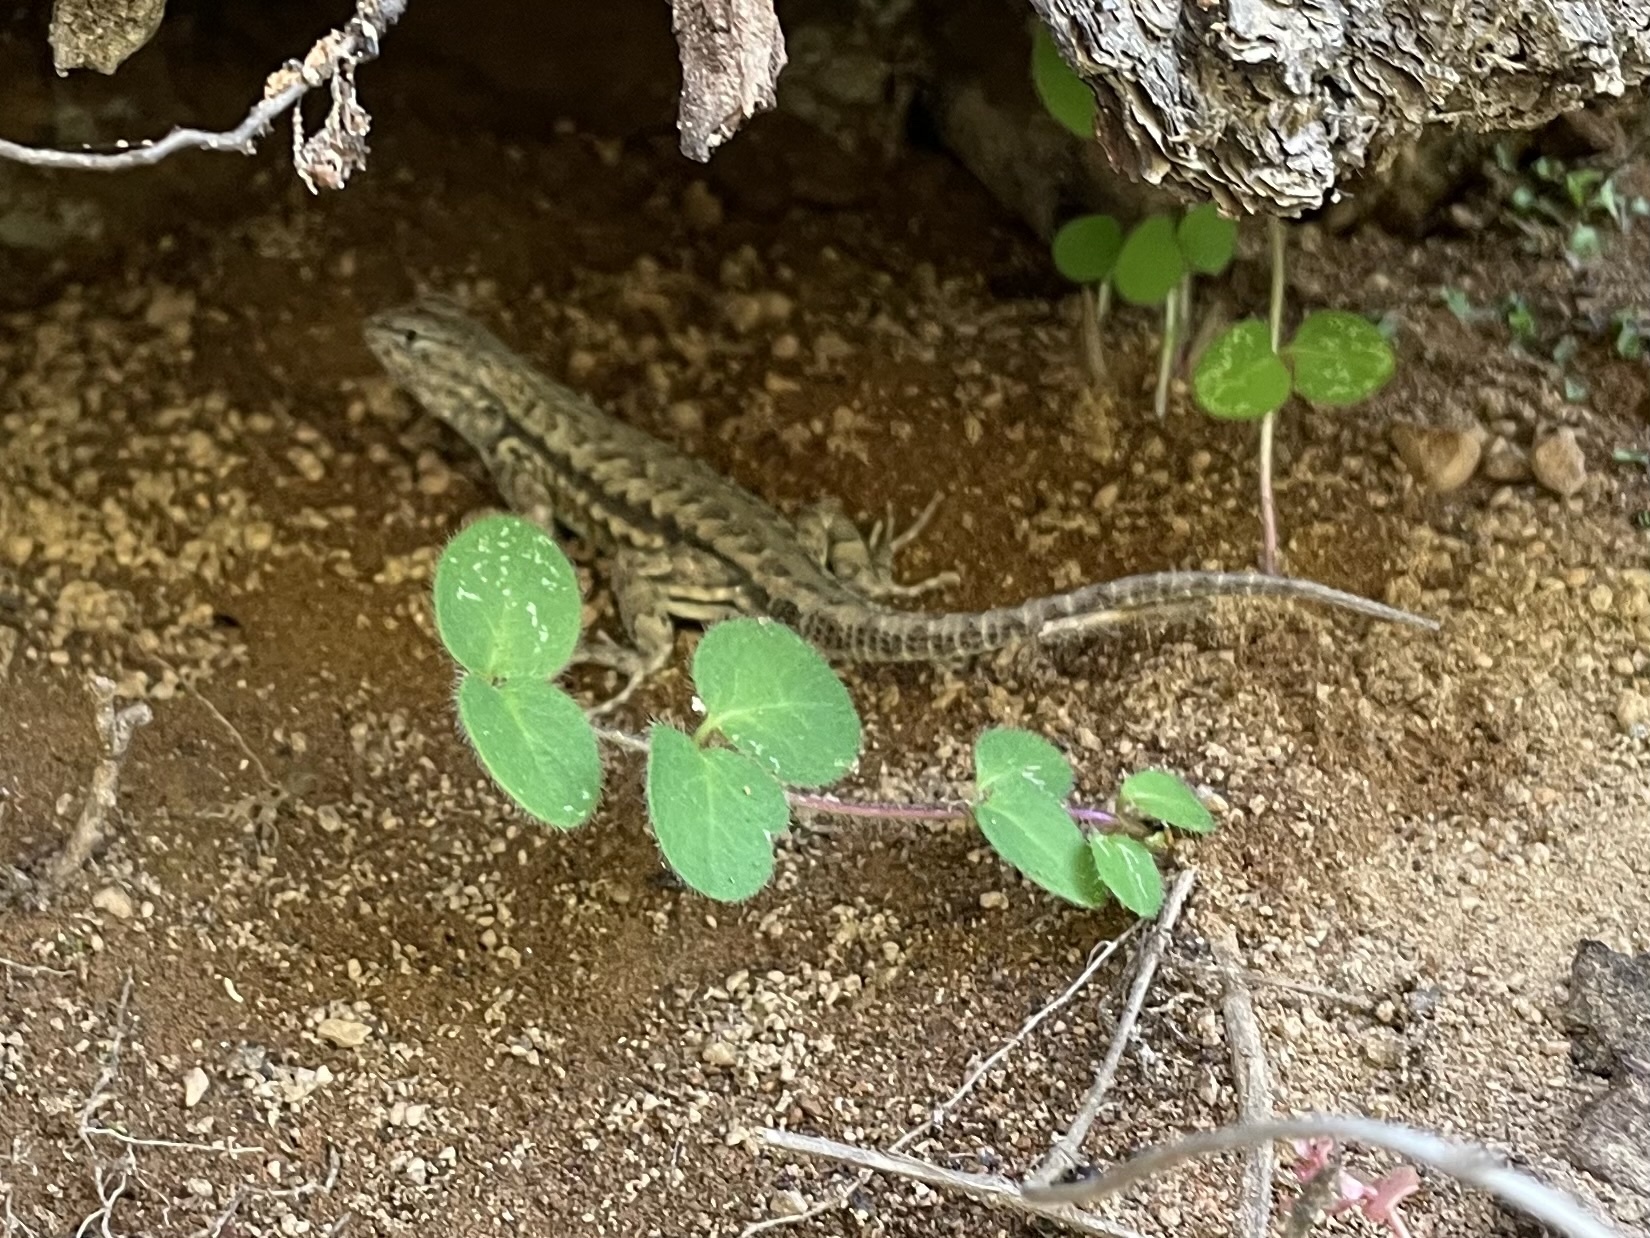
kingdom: Animalia
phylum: Chordata
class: Squamata
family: Phrynosomatidae
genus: Sceloporus
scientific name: Sceloporus graciosus
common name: Sagebrush lizard
